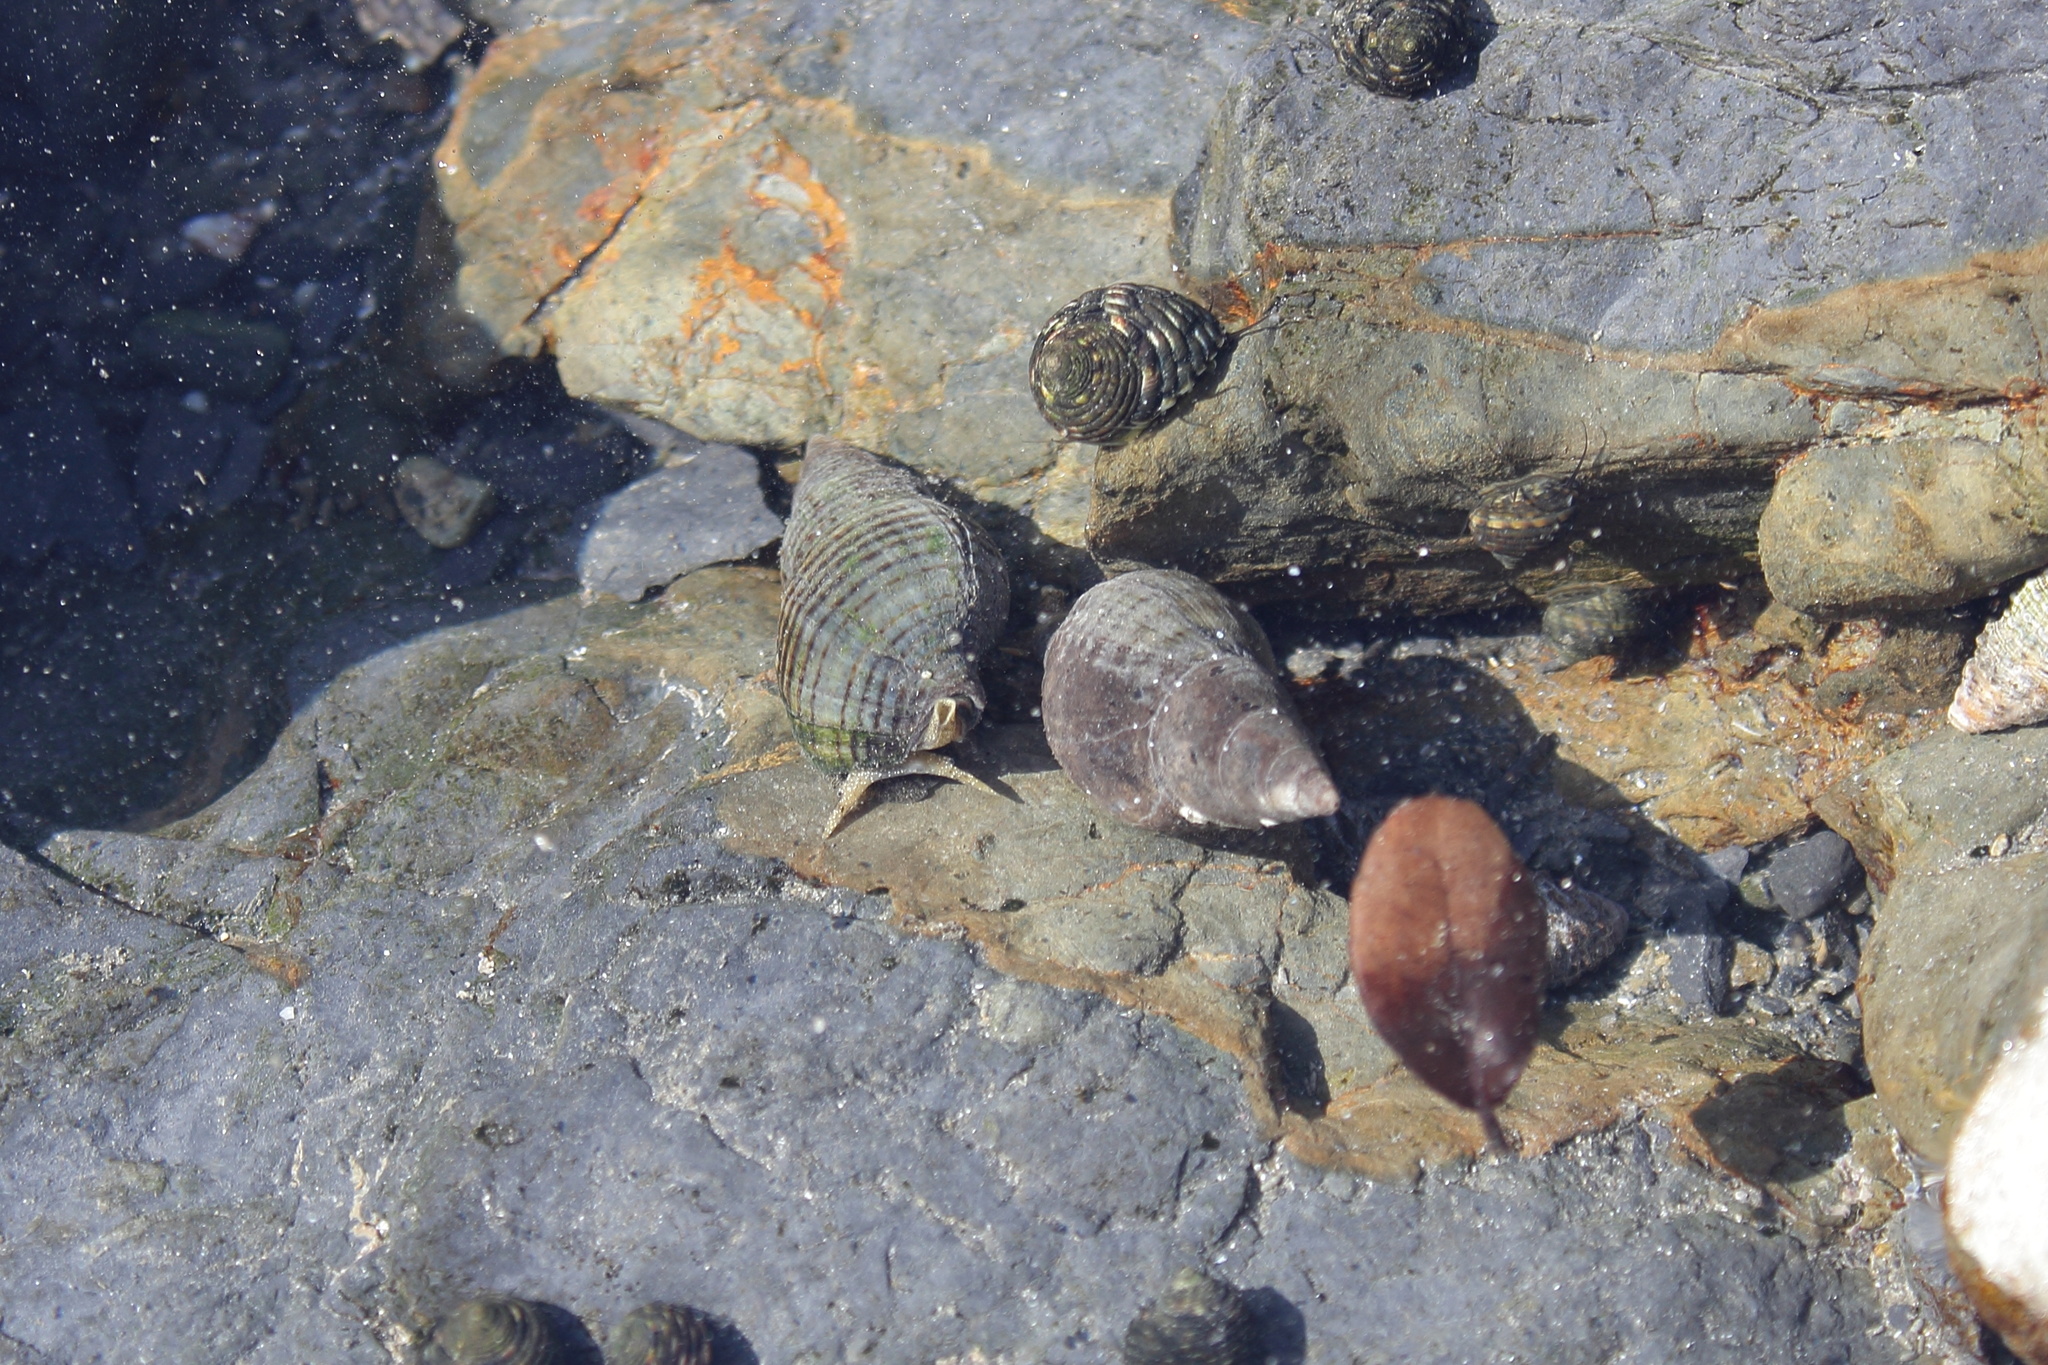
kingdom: Animalia
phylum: Mollusca
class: Gastropoda
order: Neogastropoda
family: Buccinidae
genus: Japeuthria
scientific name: Japeuthria ferrea
